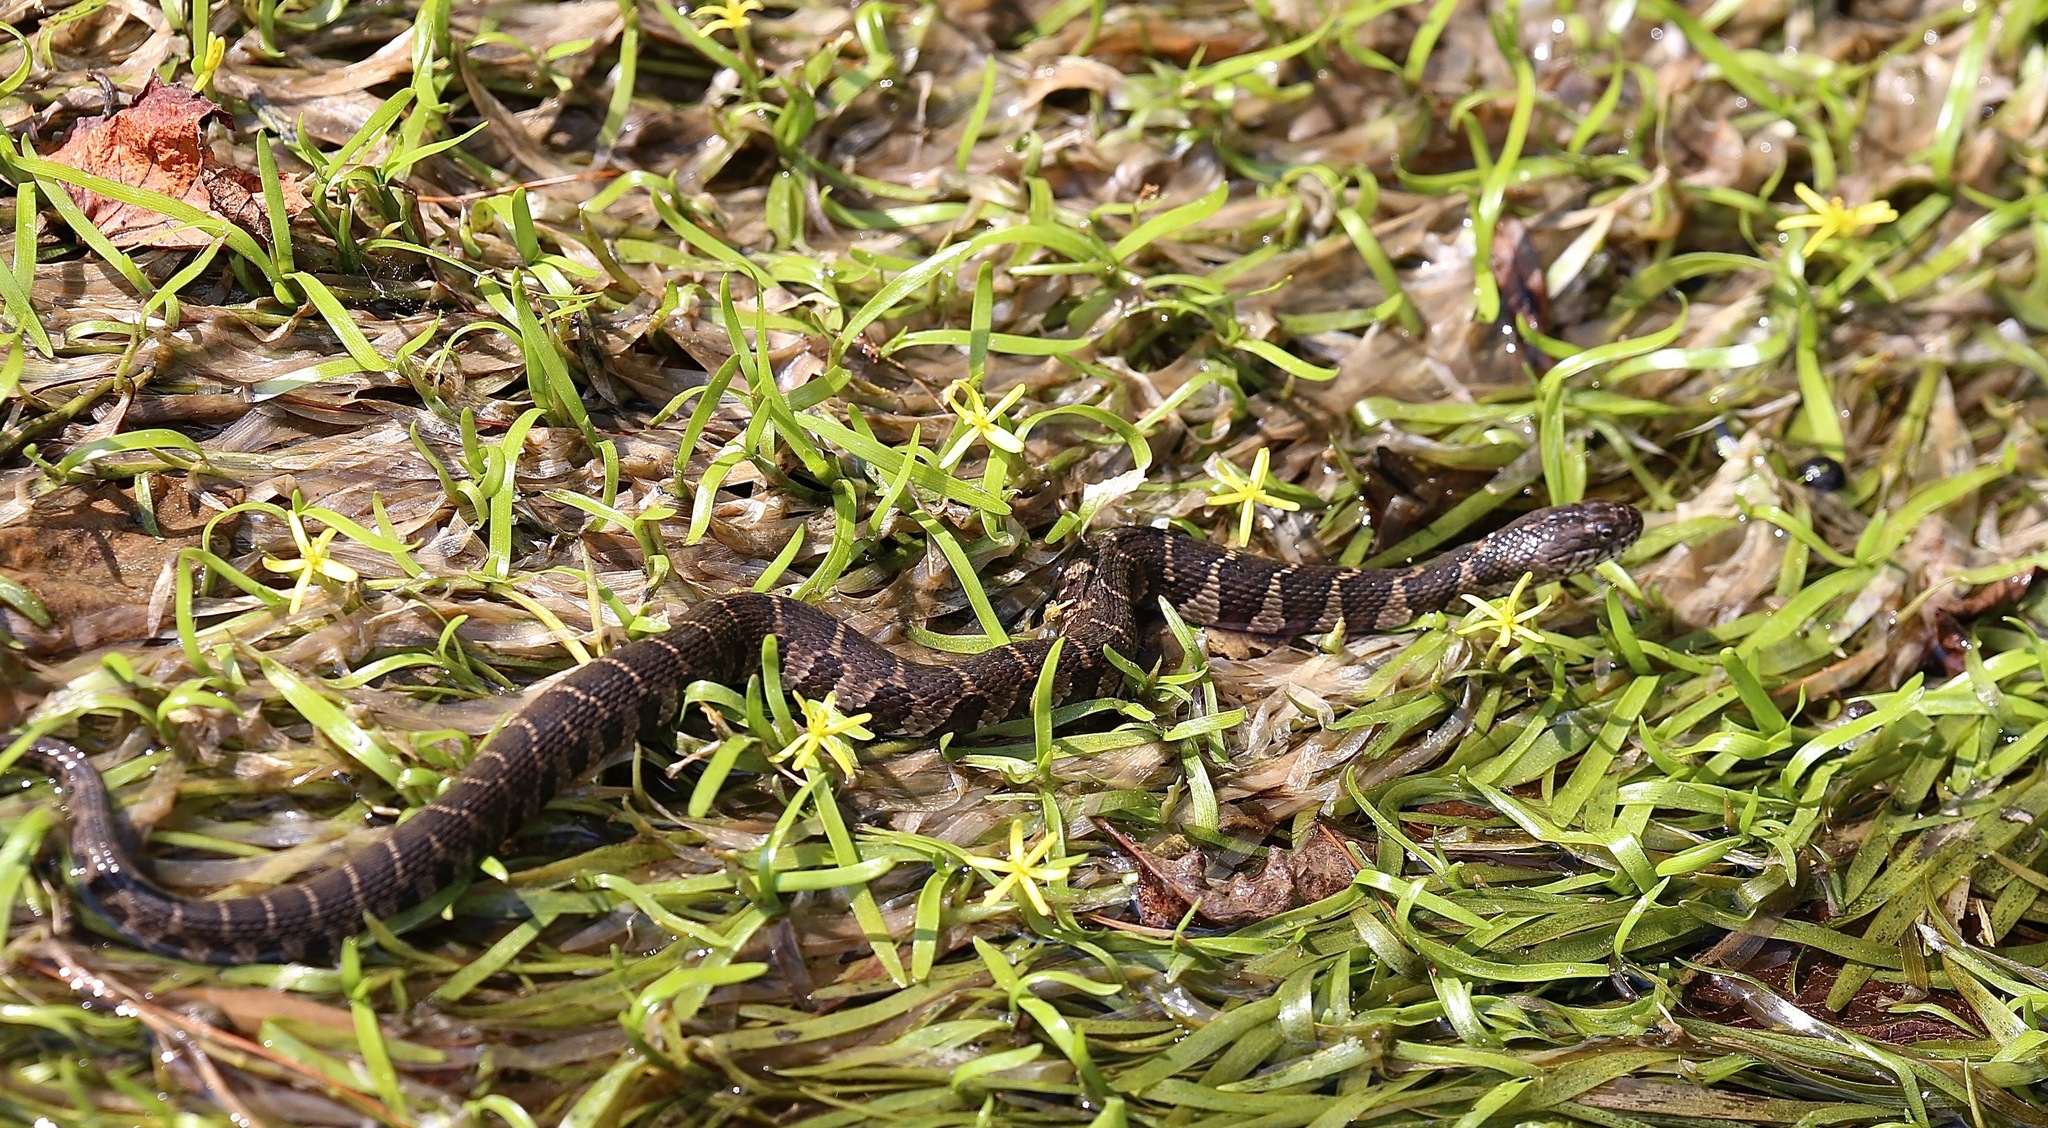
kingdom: Animalia
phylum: Chordata
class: Squamata
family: Colubridae
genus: Nerodia
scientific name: Nerodia sipedon
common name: Northern water snake
